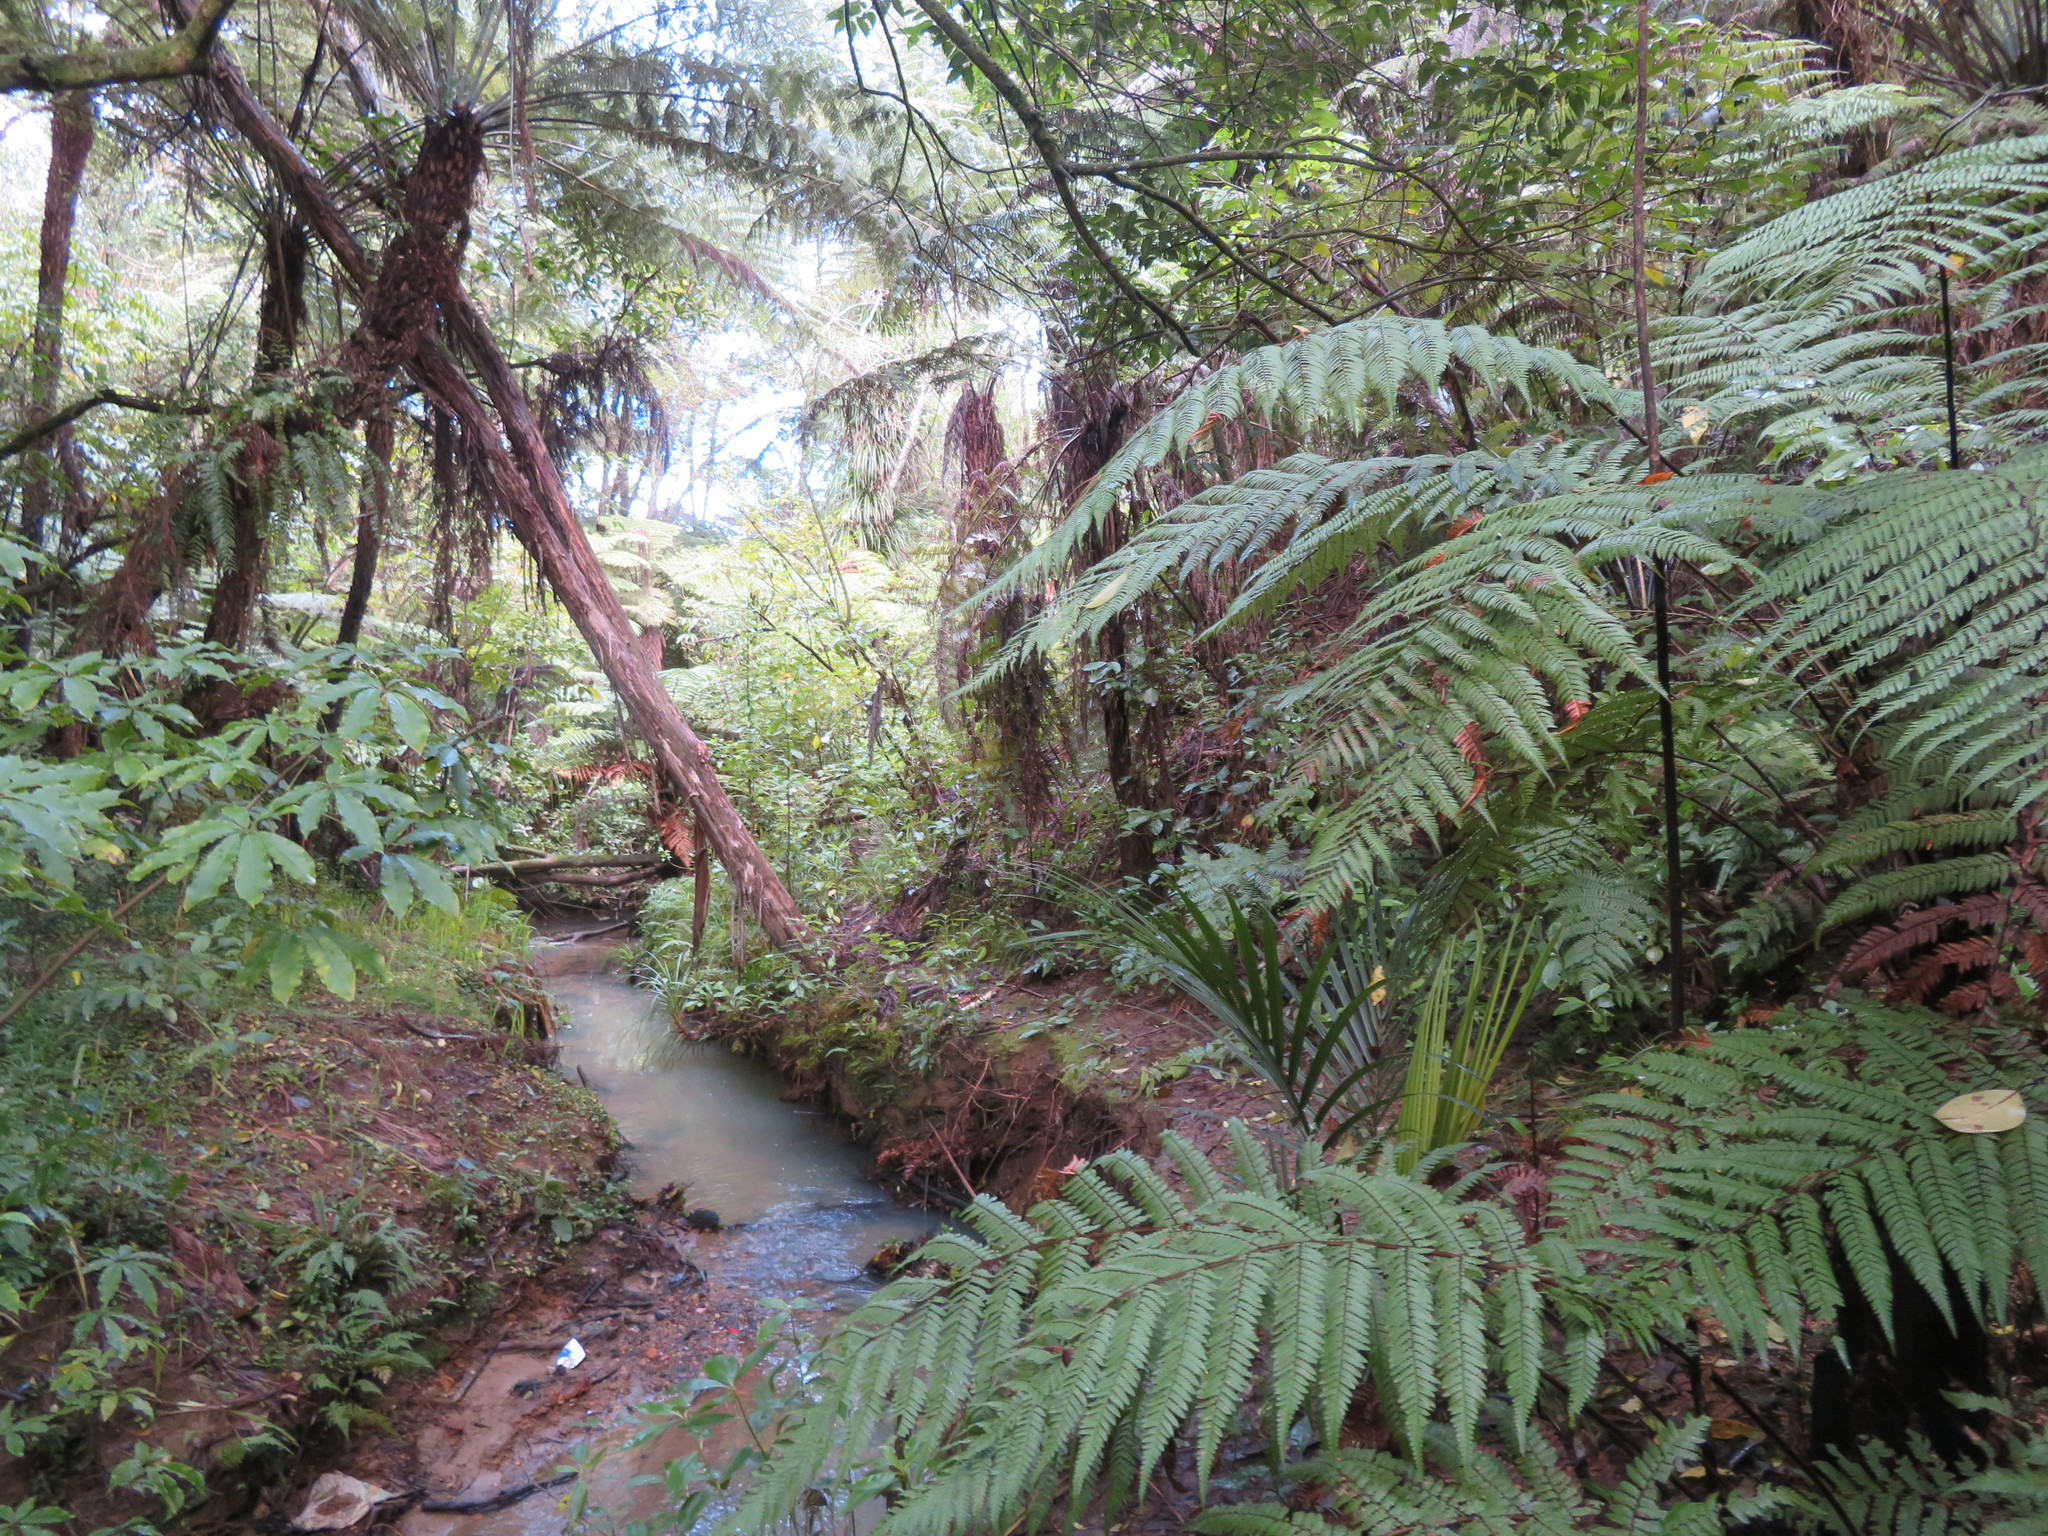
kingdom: Plantae
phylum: Tracheophyta
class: Polypodiopsida
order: Cyatheales
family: Dicksoniaceae
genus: Dicksonia
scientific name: Dicksonia squarrosa
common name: Hard treefern
